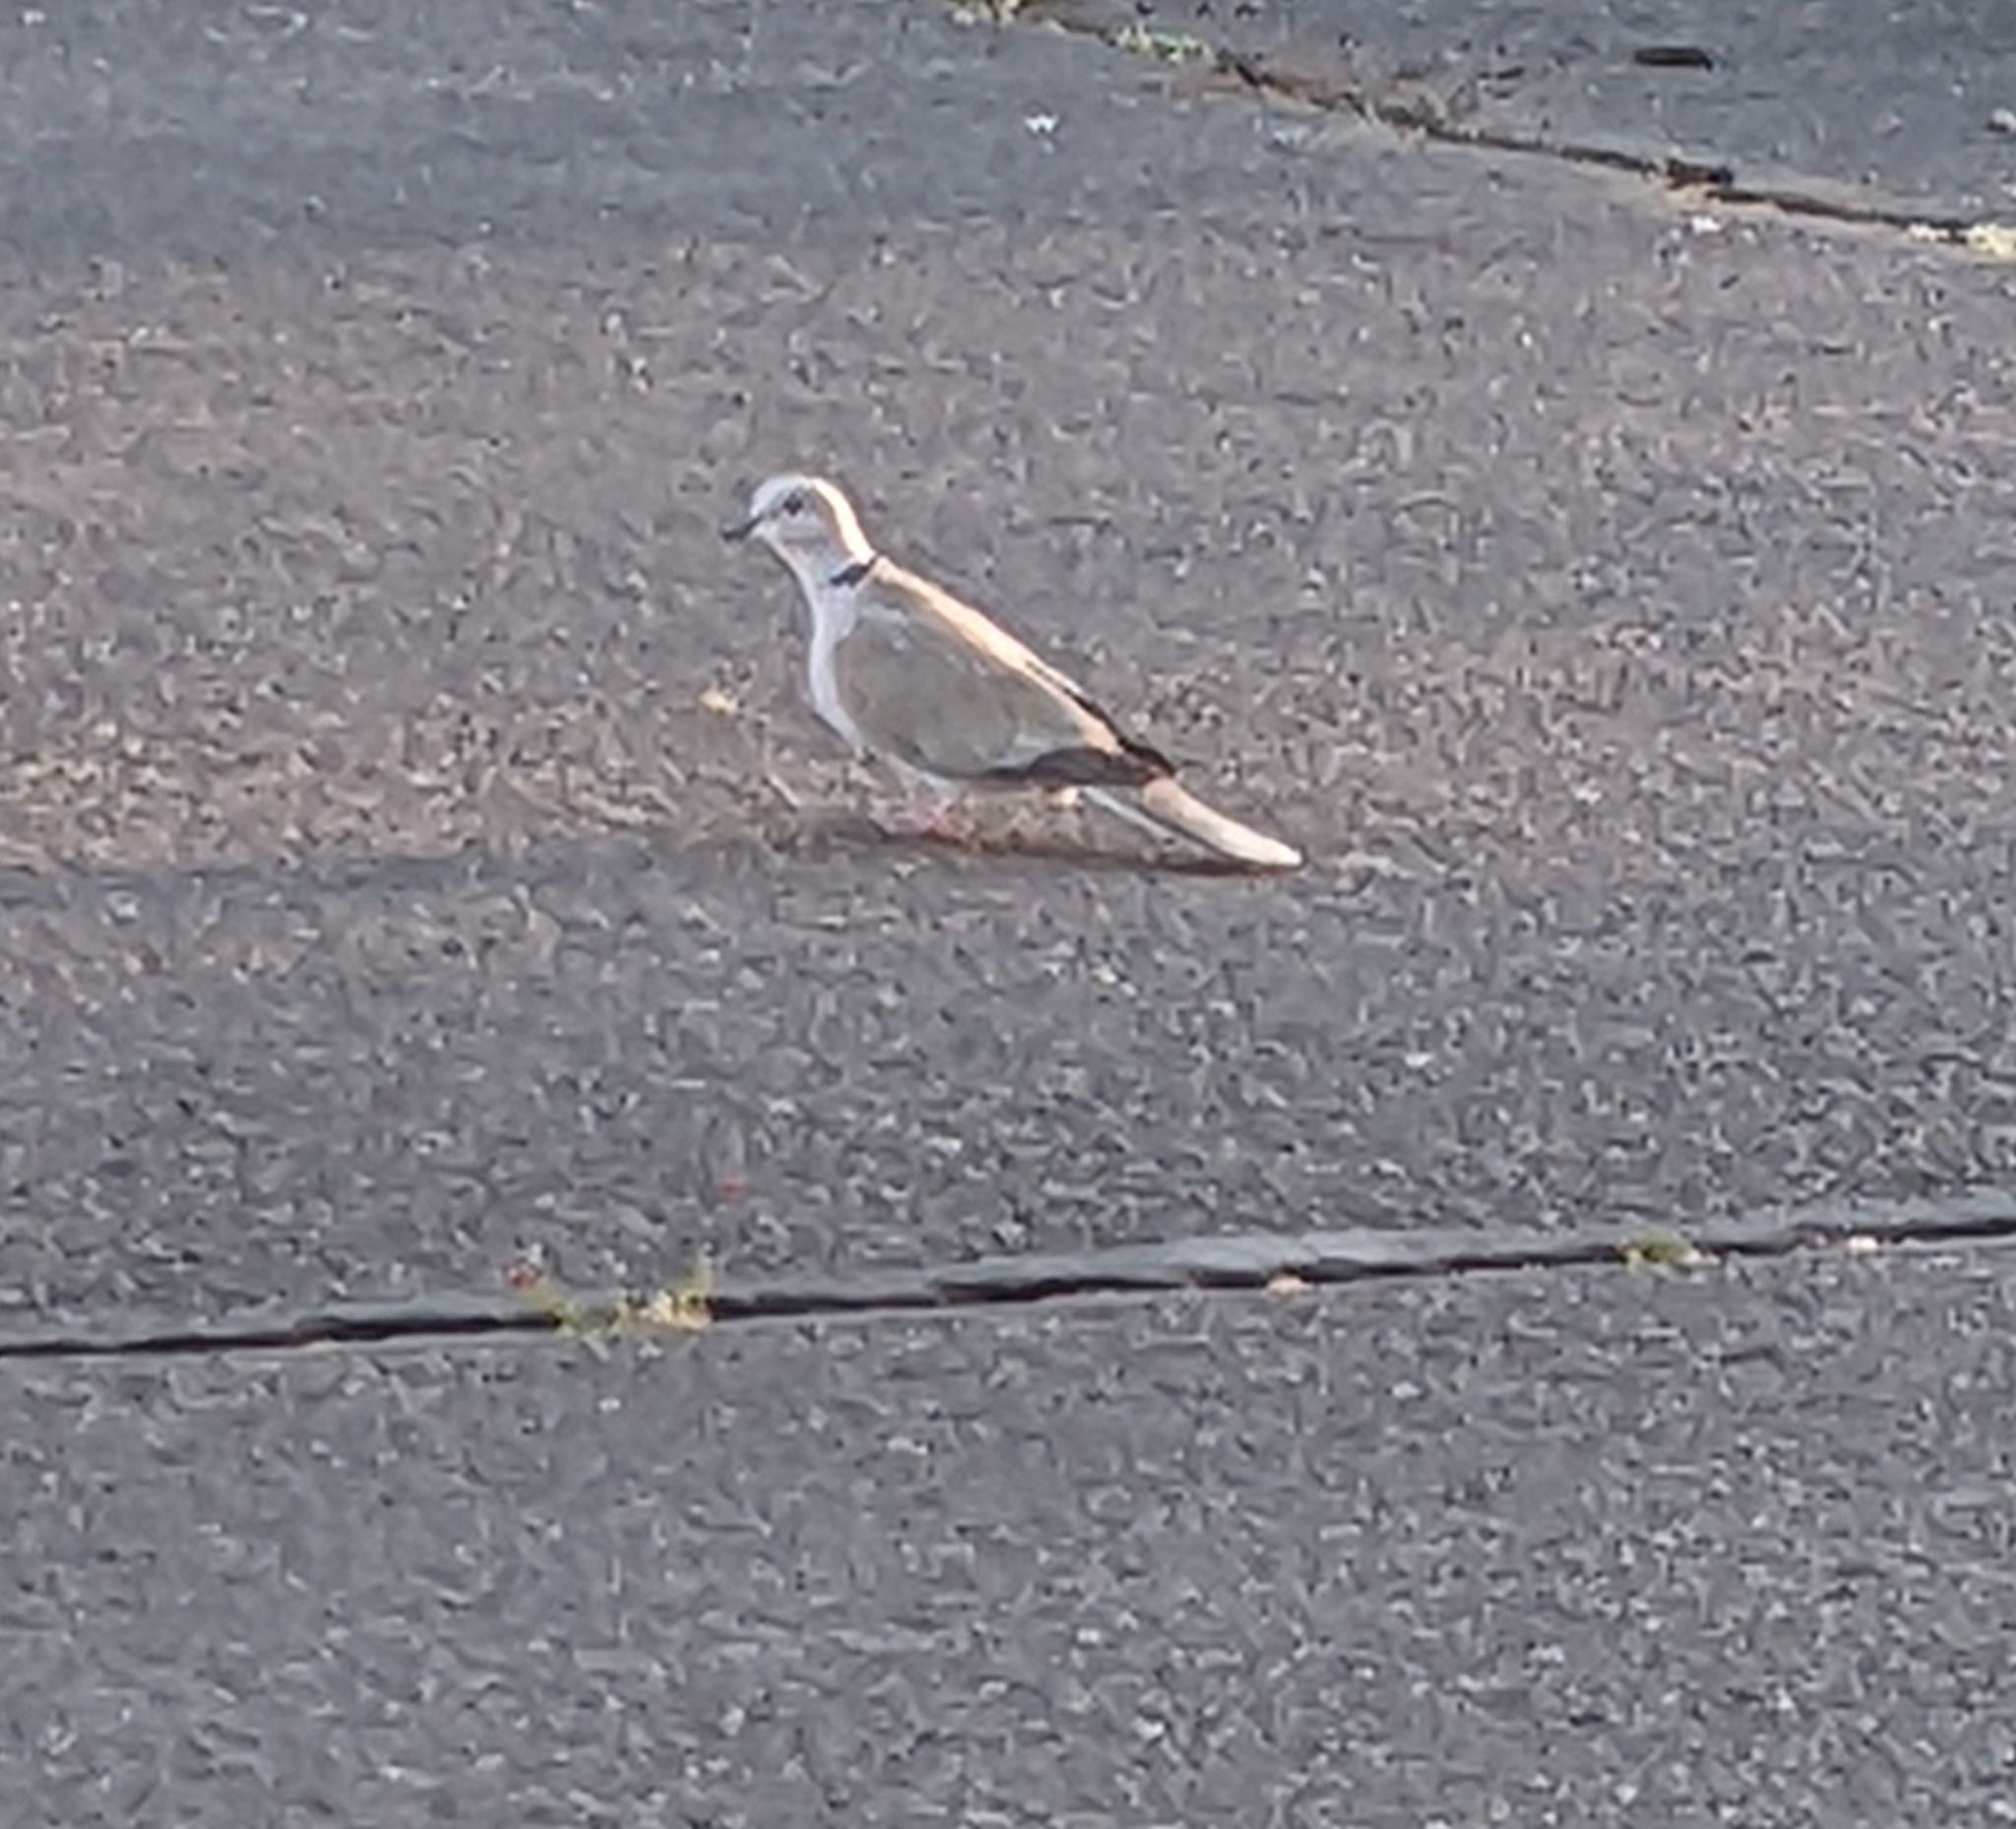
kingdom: Animalia
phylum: Chordata
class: Aves
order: Columbiformes
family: Columbidae
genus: Streptopelia
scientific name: Streptopelia decaocto
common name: Eurasian collared dove
